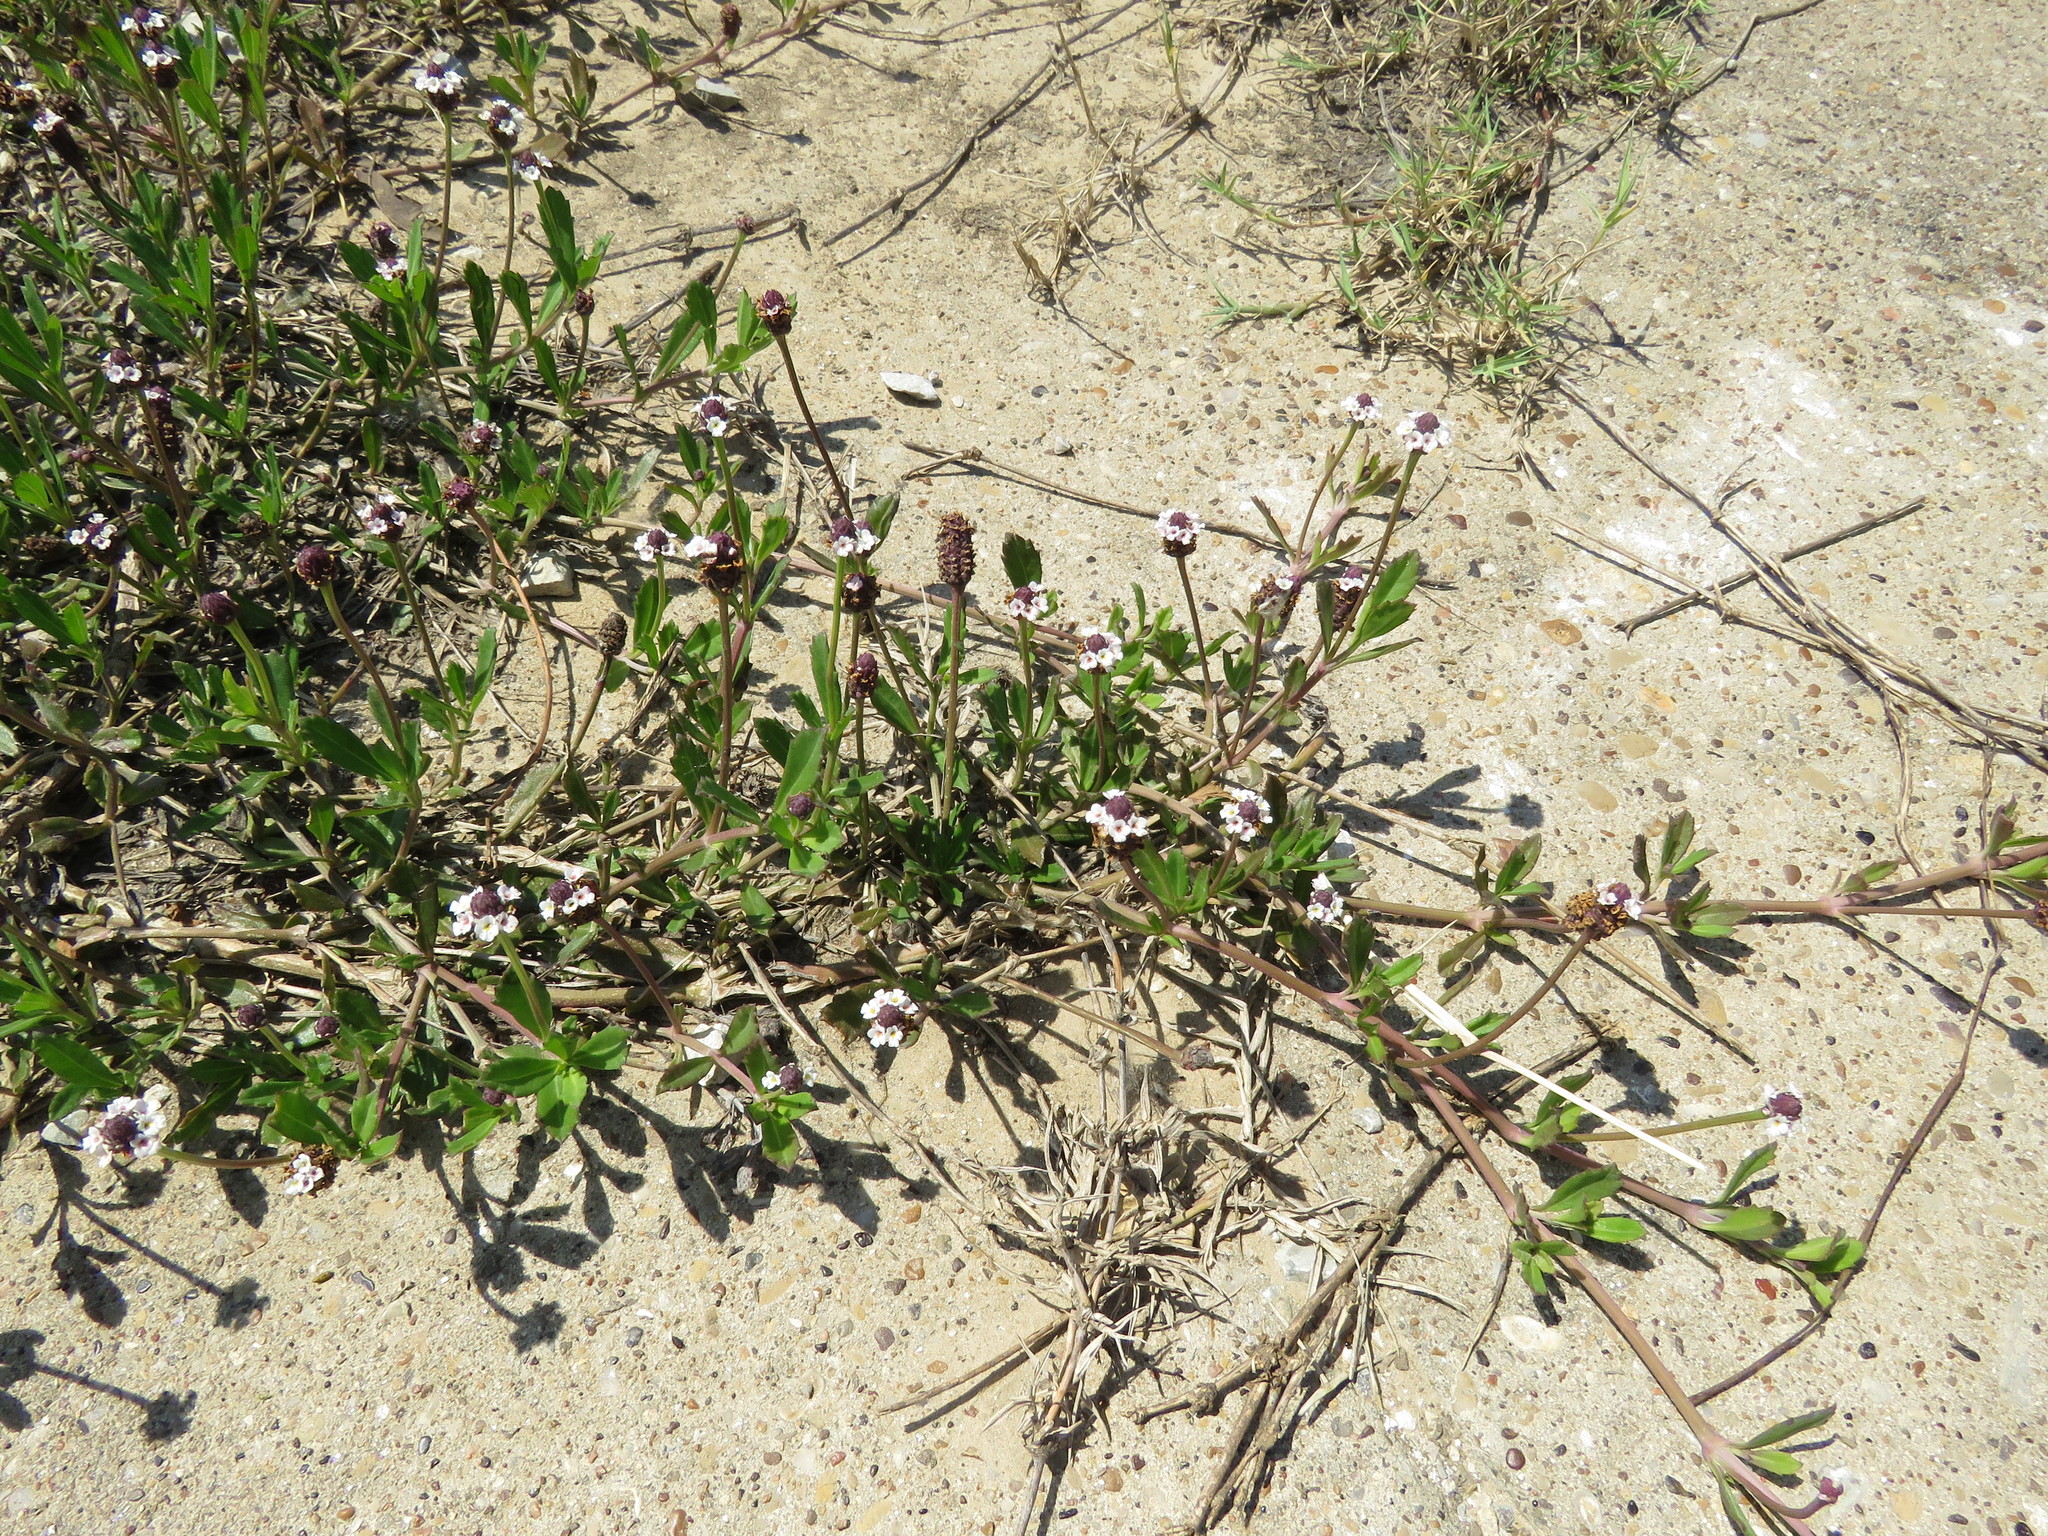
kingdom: Plantae
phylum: Tracheophyta
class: Magnoliopsida
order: Lamiales
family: Verbenaceae
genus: Phyla
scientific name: Phyla nodiflora
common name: Frogfruit
